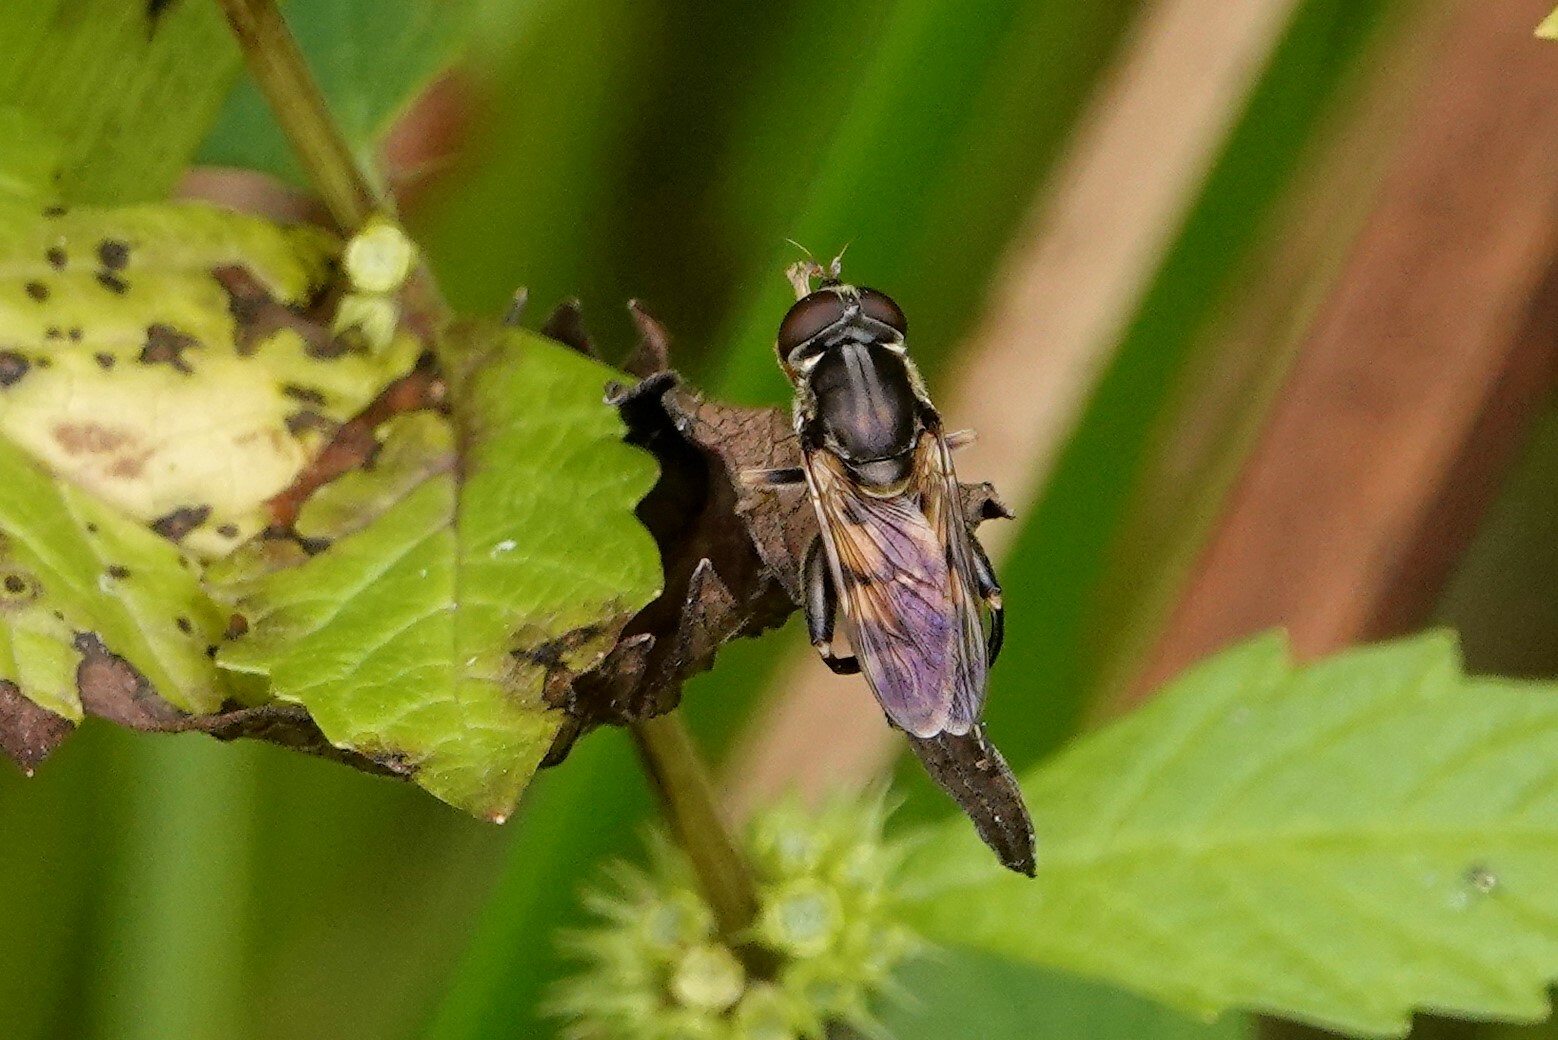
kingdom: Animalia
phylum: Arthropoda
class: Insecta
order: Diptera
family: Syrphidae
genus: Tropidia
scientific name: Tropidia quadrata
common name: Common thick-legged fly
